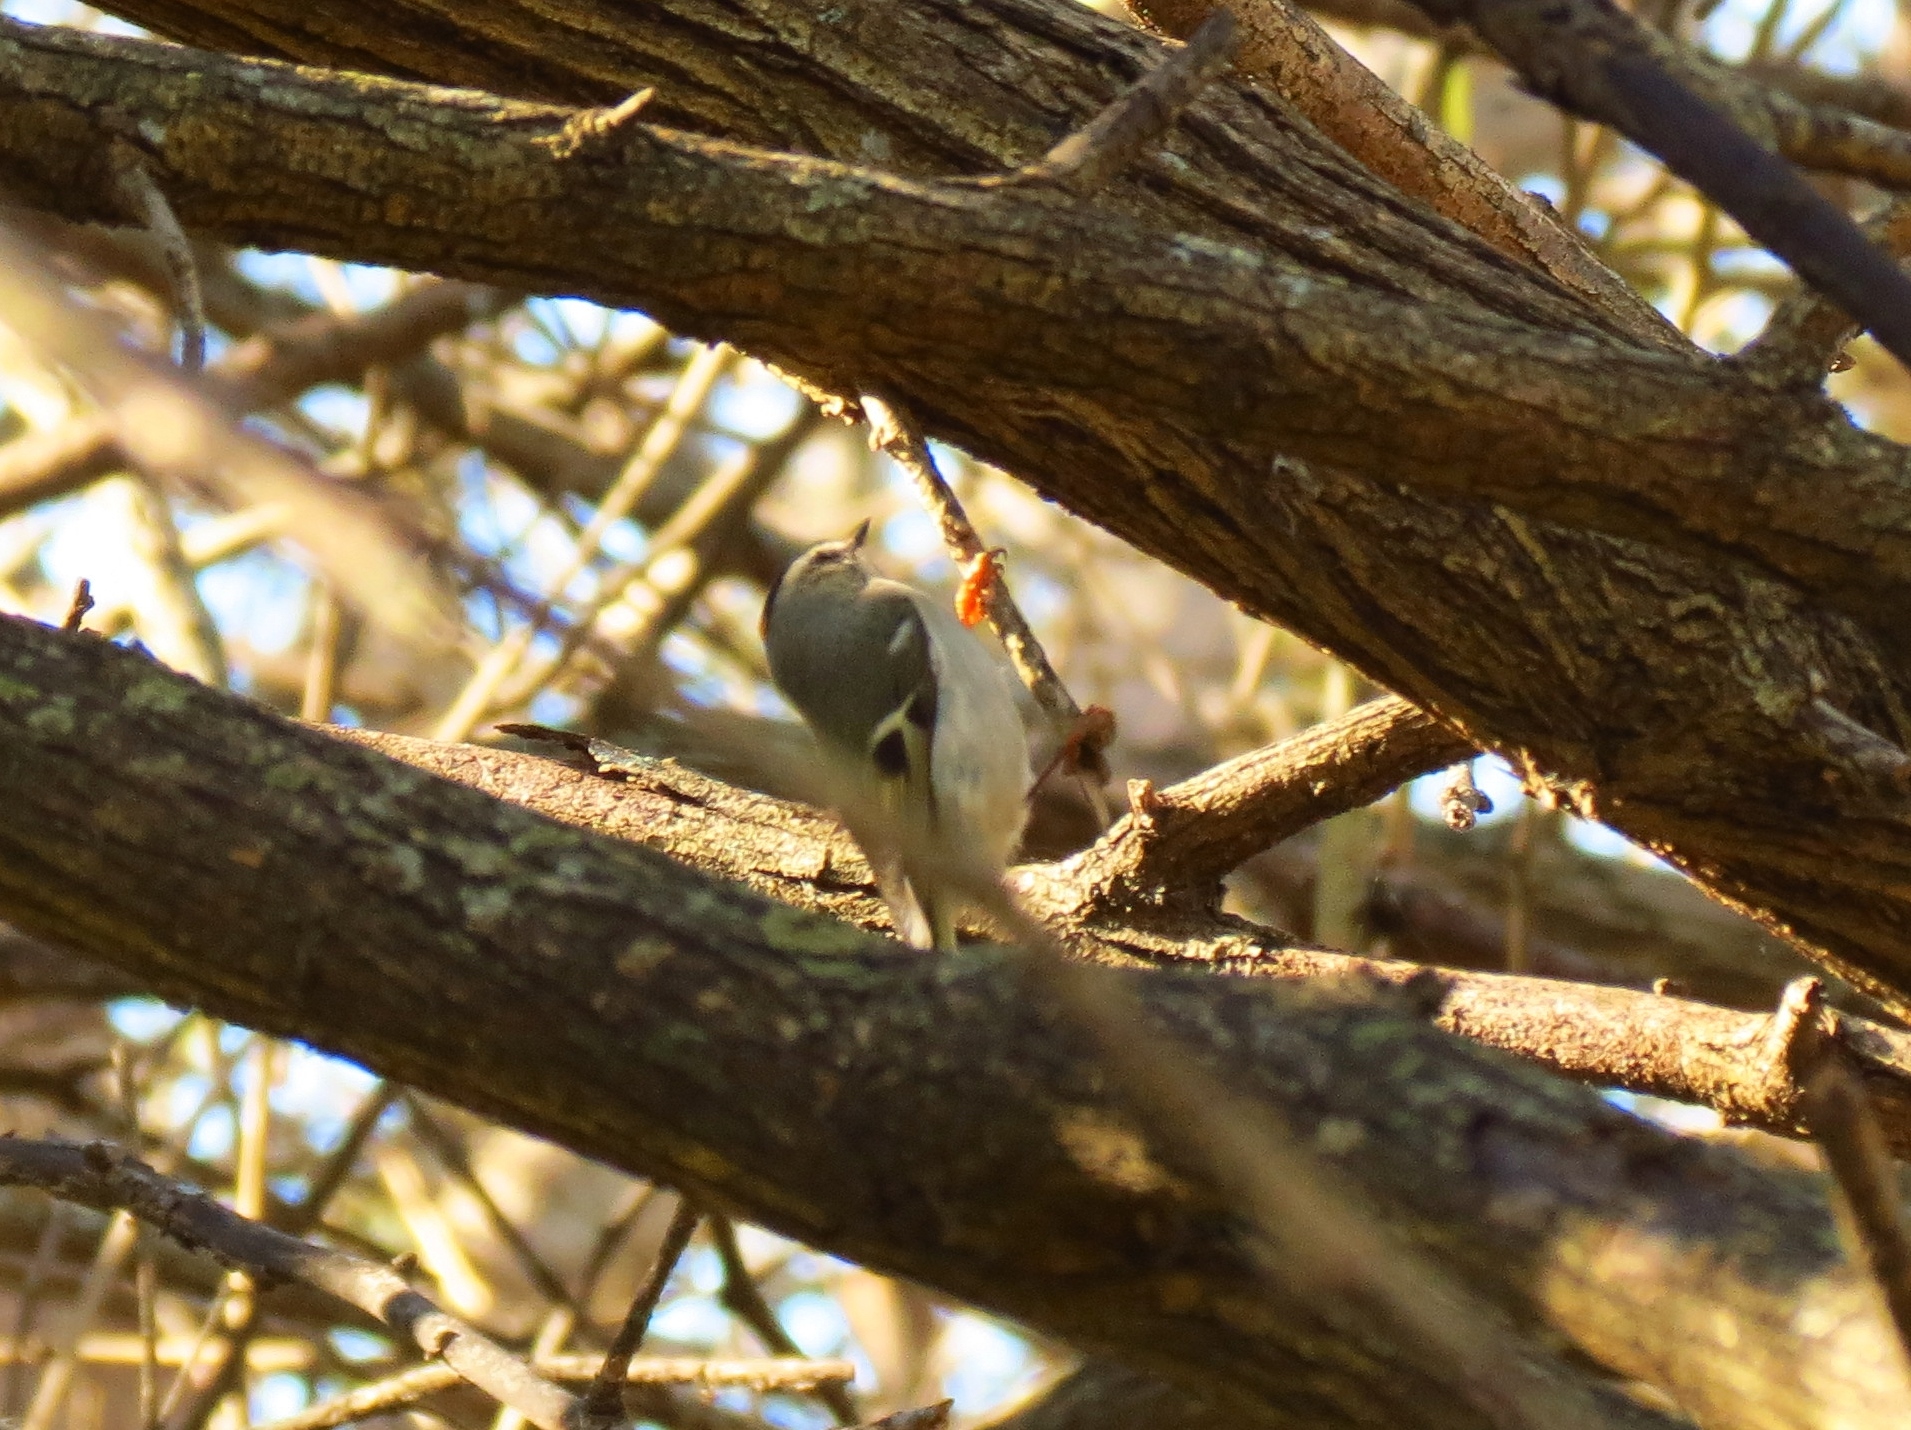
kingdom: Animalia
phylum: Chordata
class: Aves
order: Passeriformes
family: Regulidae
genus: Regulus
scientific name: Regulus satrapa
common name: Golden-crowned kinglet
